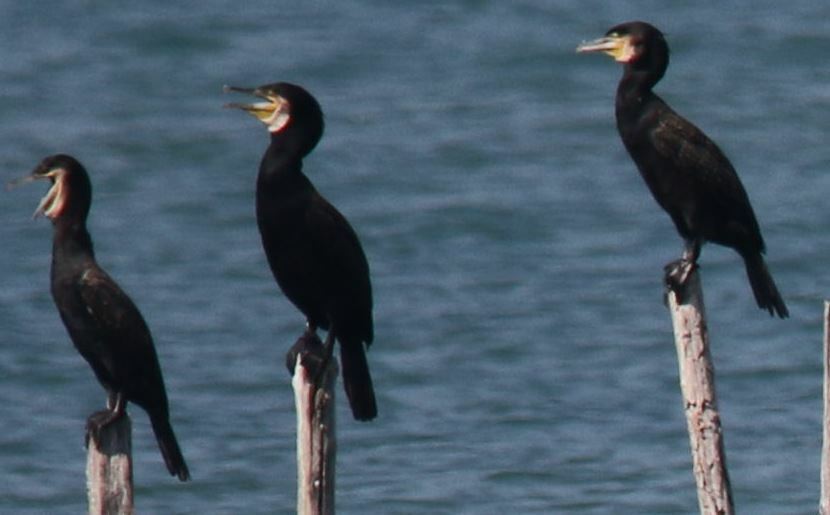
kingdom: Animalia
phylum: Chordata
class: Aves
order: Suliformes
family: Phalacrocoracidae
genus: Phalacrocorax
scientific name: Phalacrocorax carbo
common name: Great cormorant
